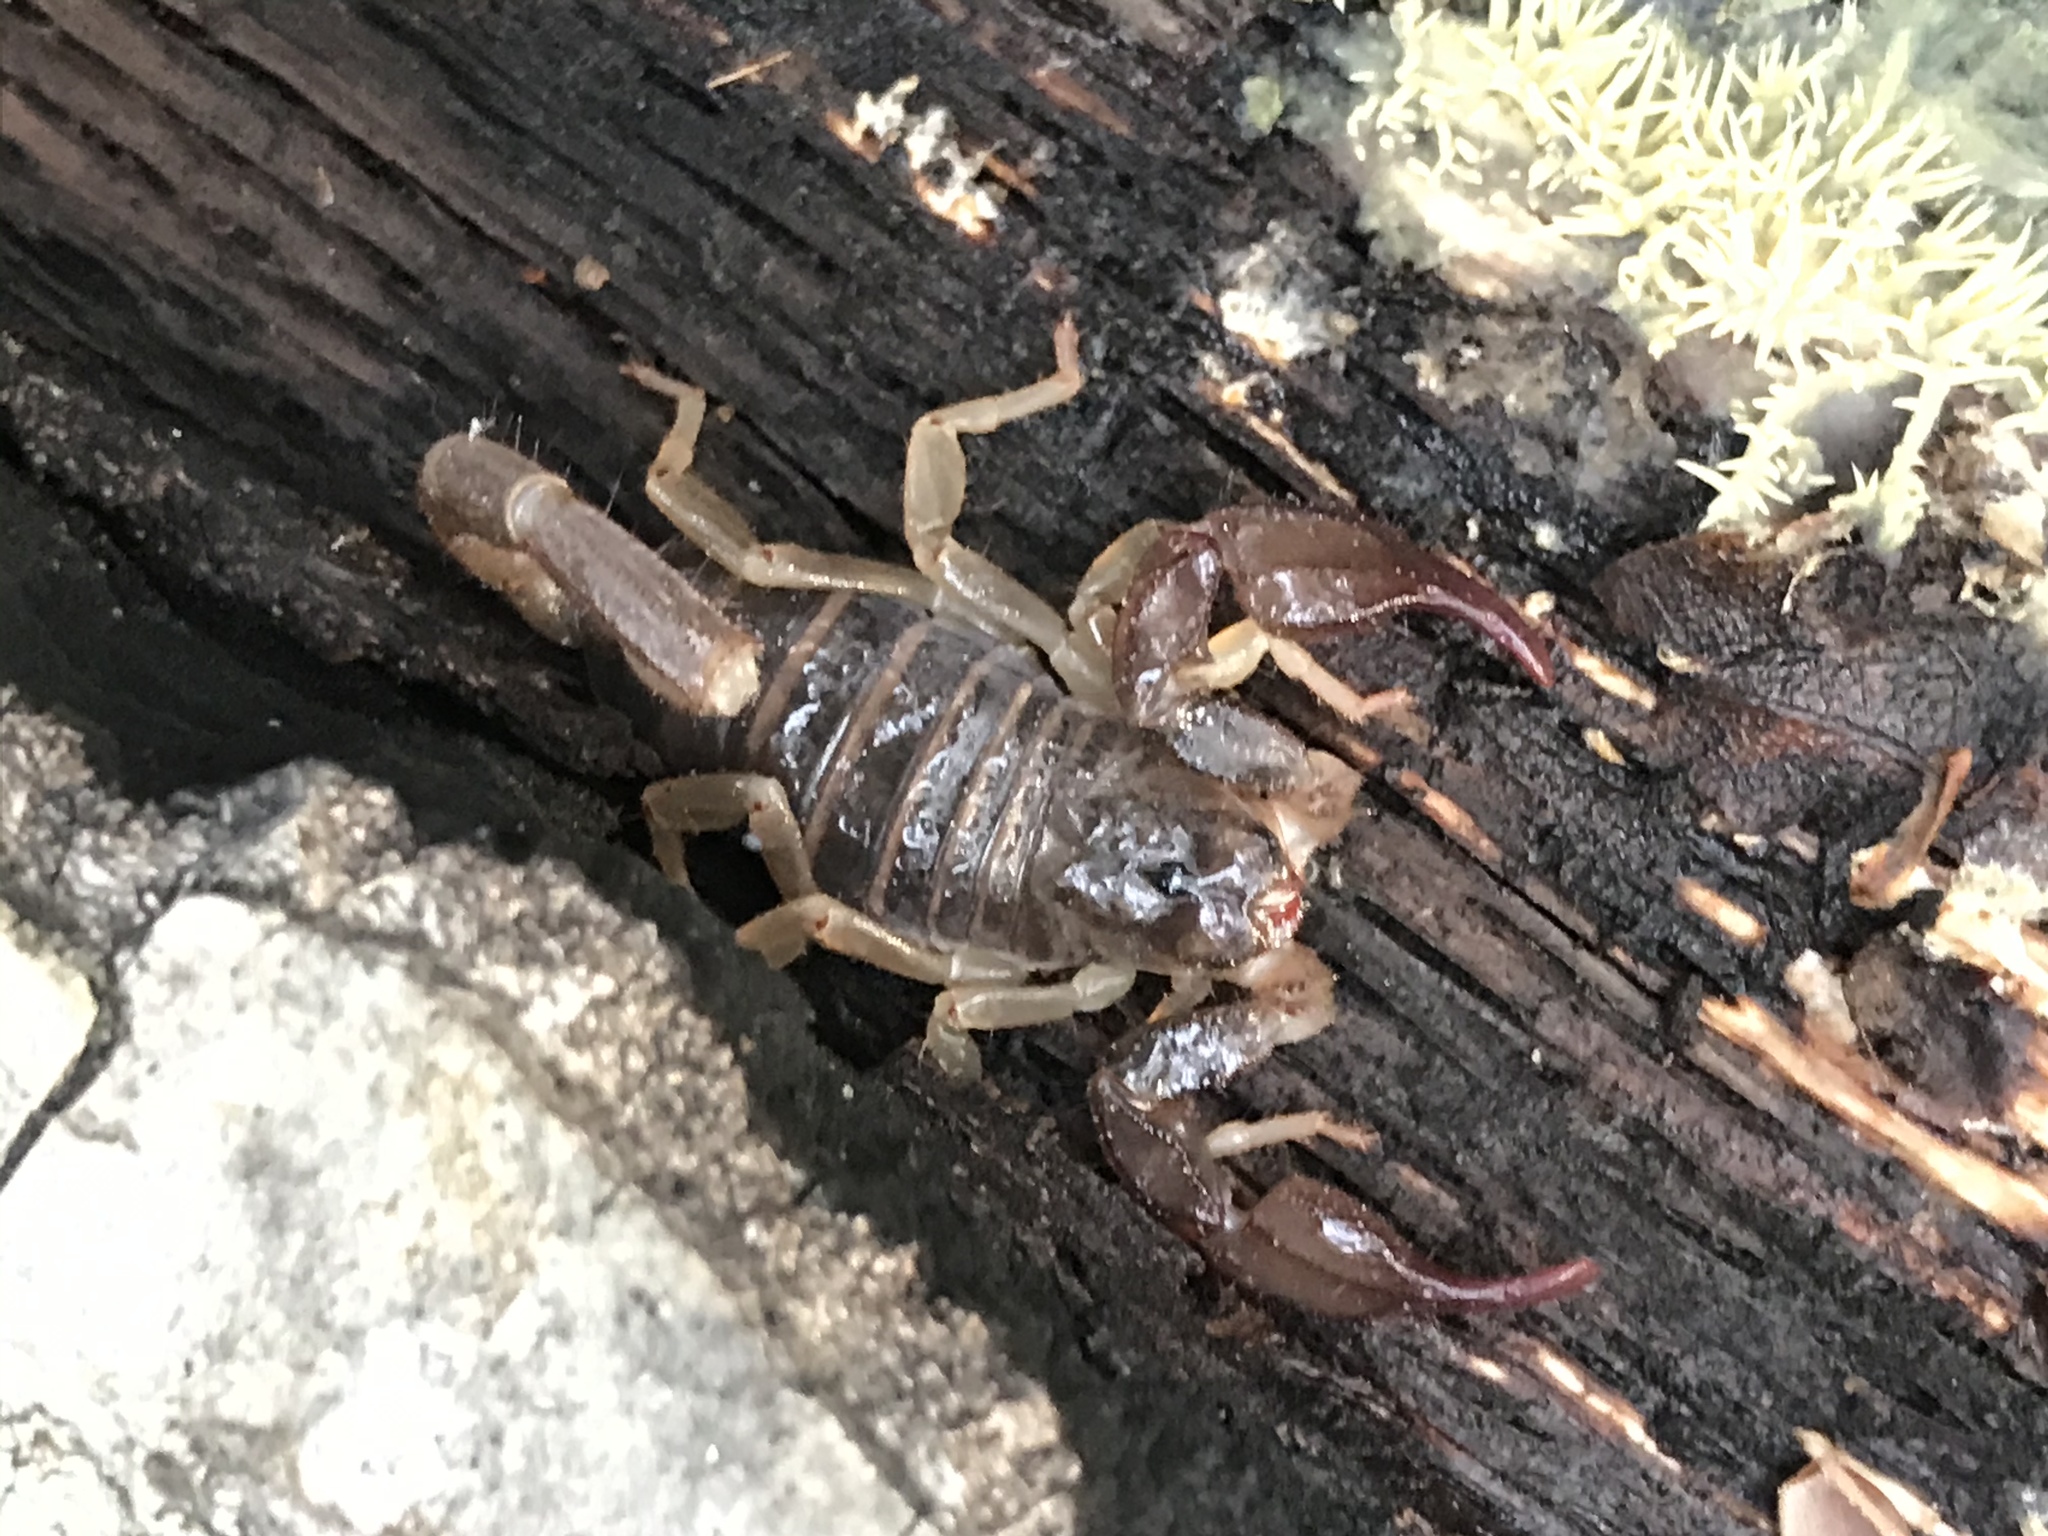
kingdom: Animalia
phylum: Arthropoda
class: Arachnida
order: Scorpiones
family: Chactidae
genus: Uroctonus
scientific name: Uroctonus mordax
